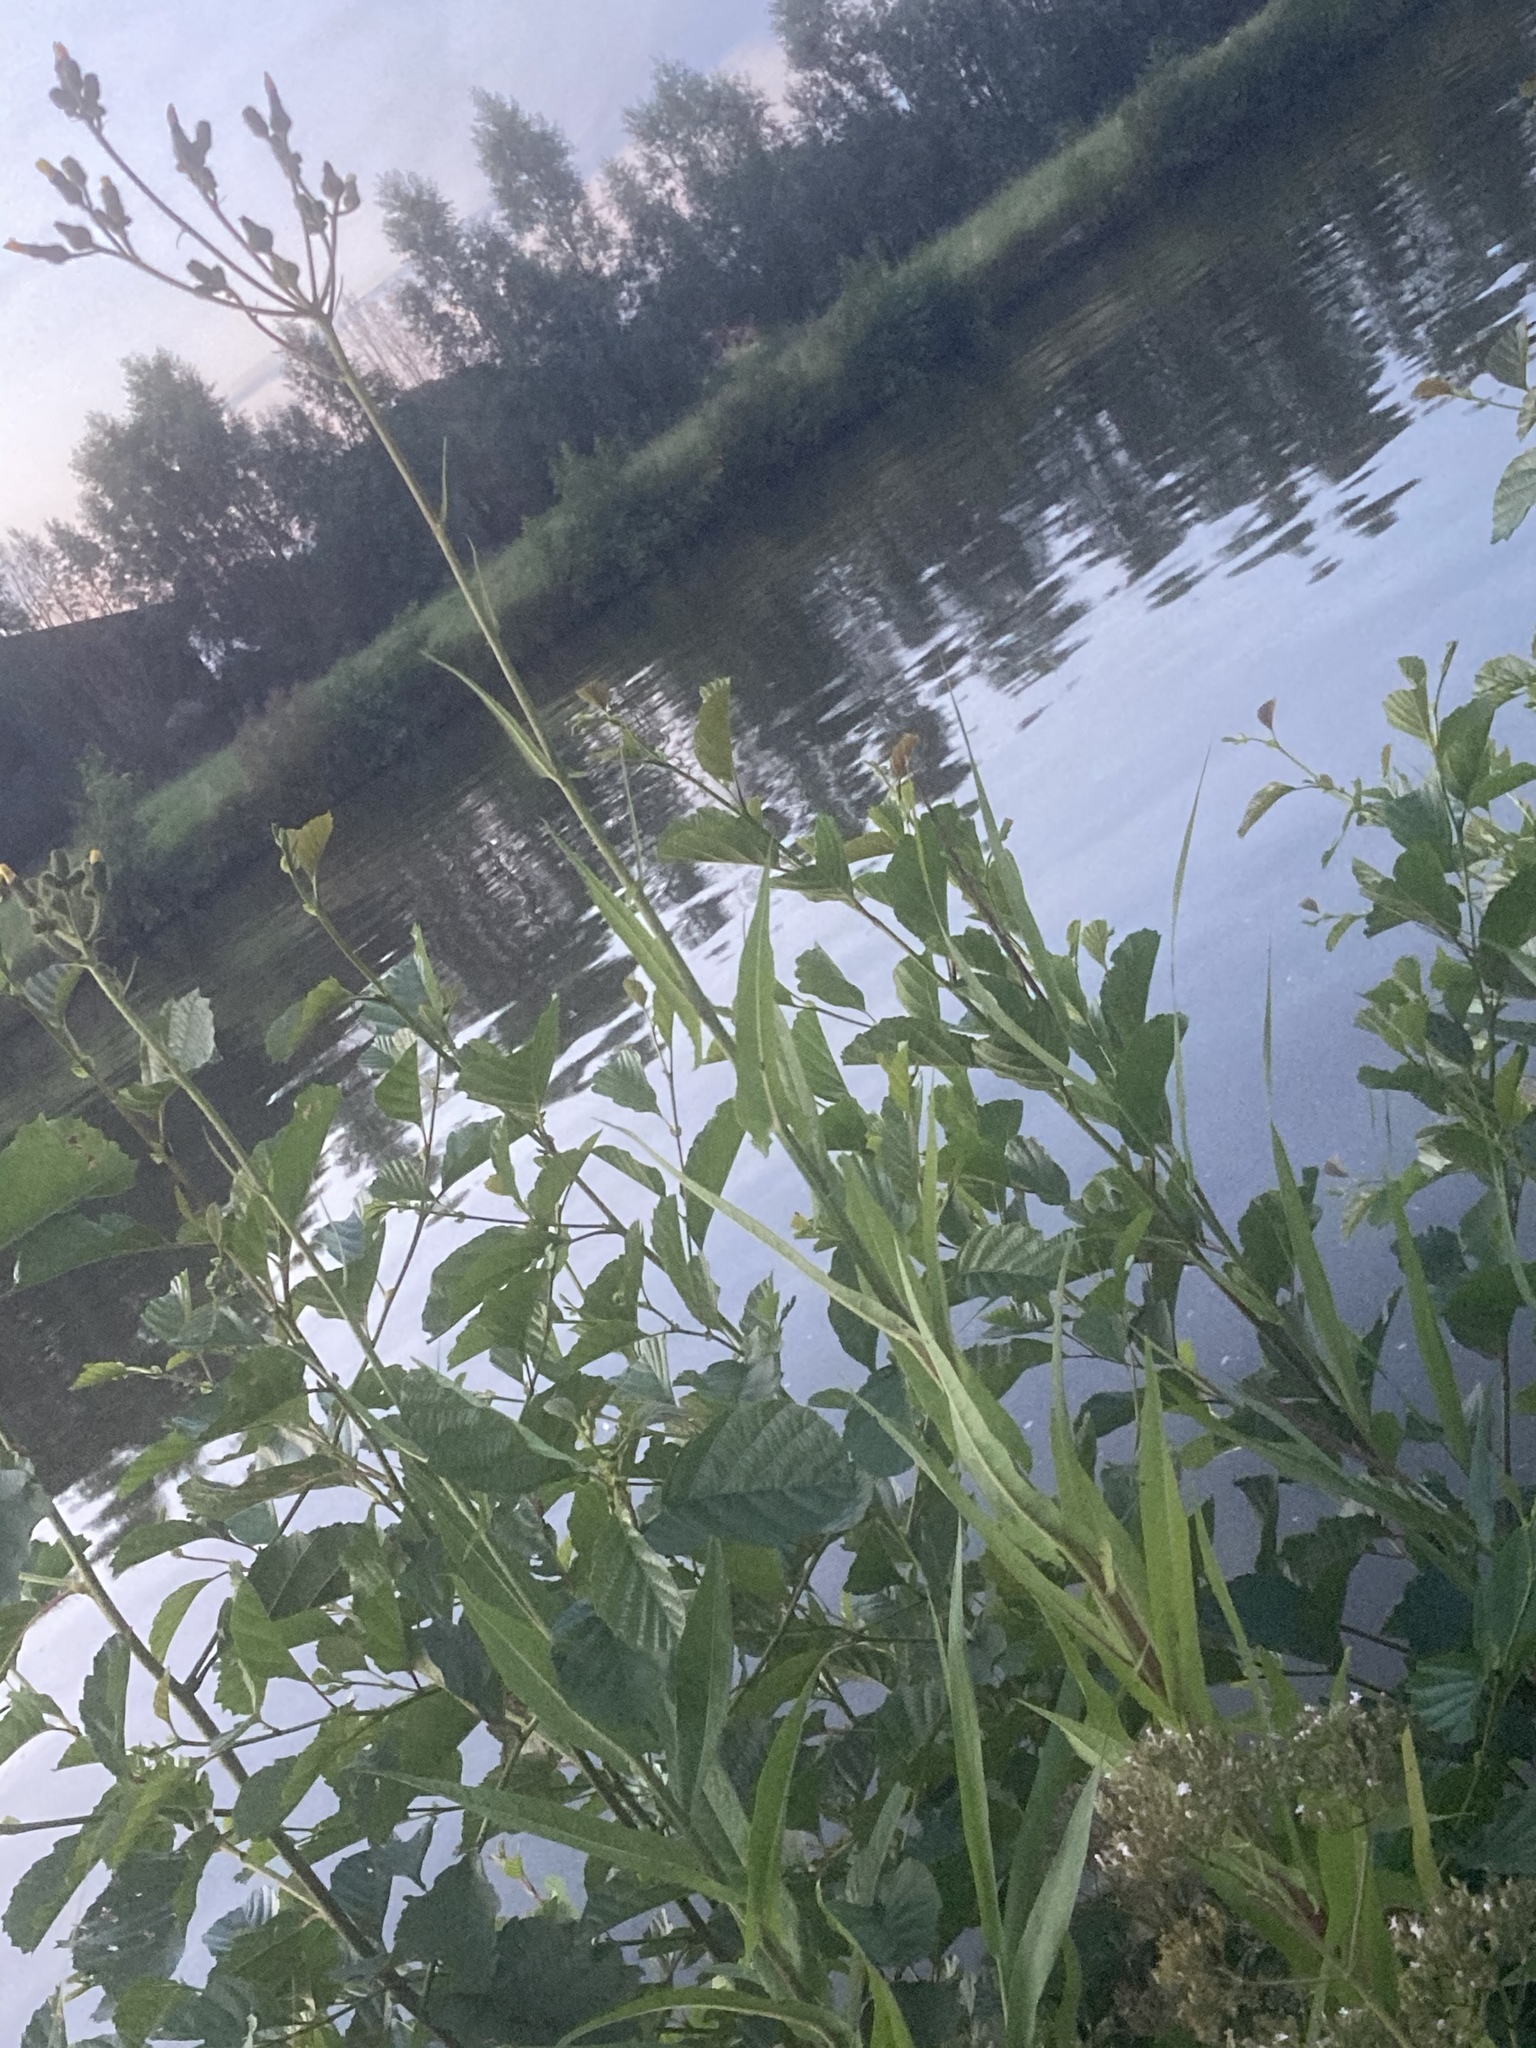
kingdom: Plantae
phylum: Tracheophyta
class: Magnoliopsida
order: Asterales
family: Asteraceae
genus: Sonchus
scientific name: Sonchus palustris
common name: Marsh sow-thistle
